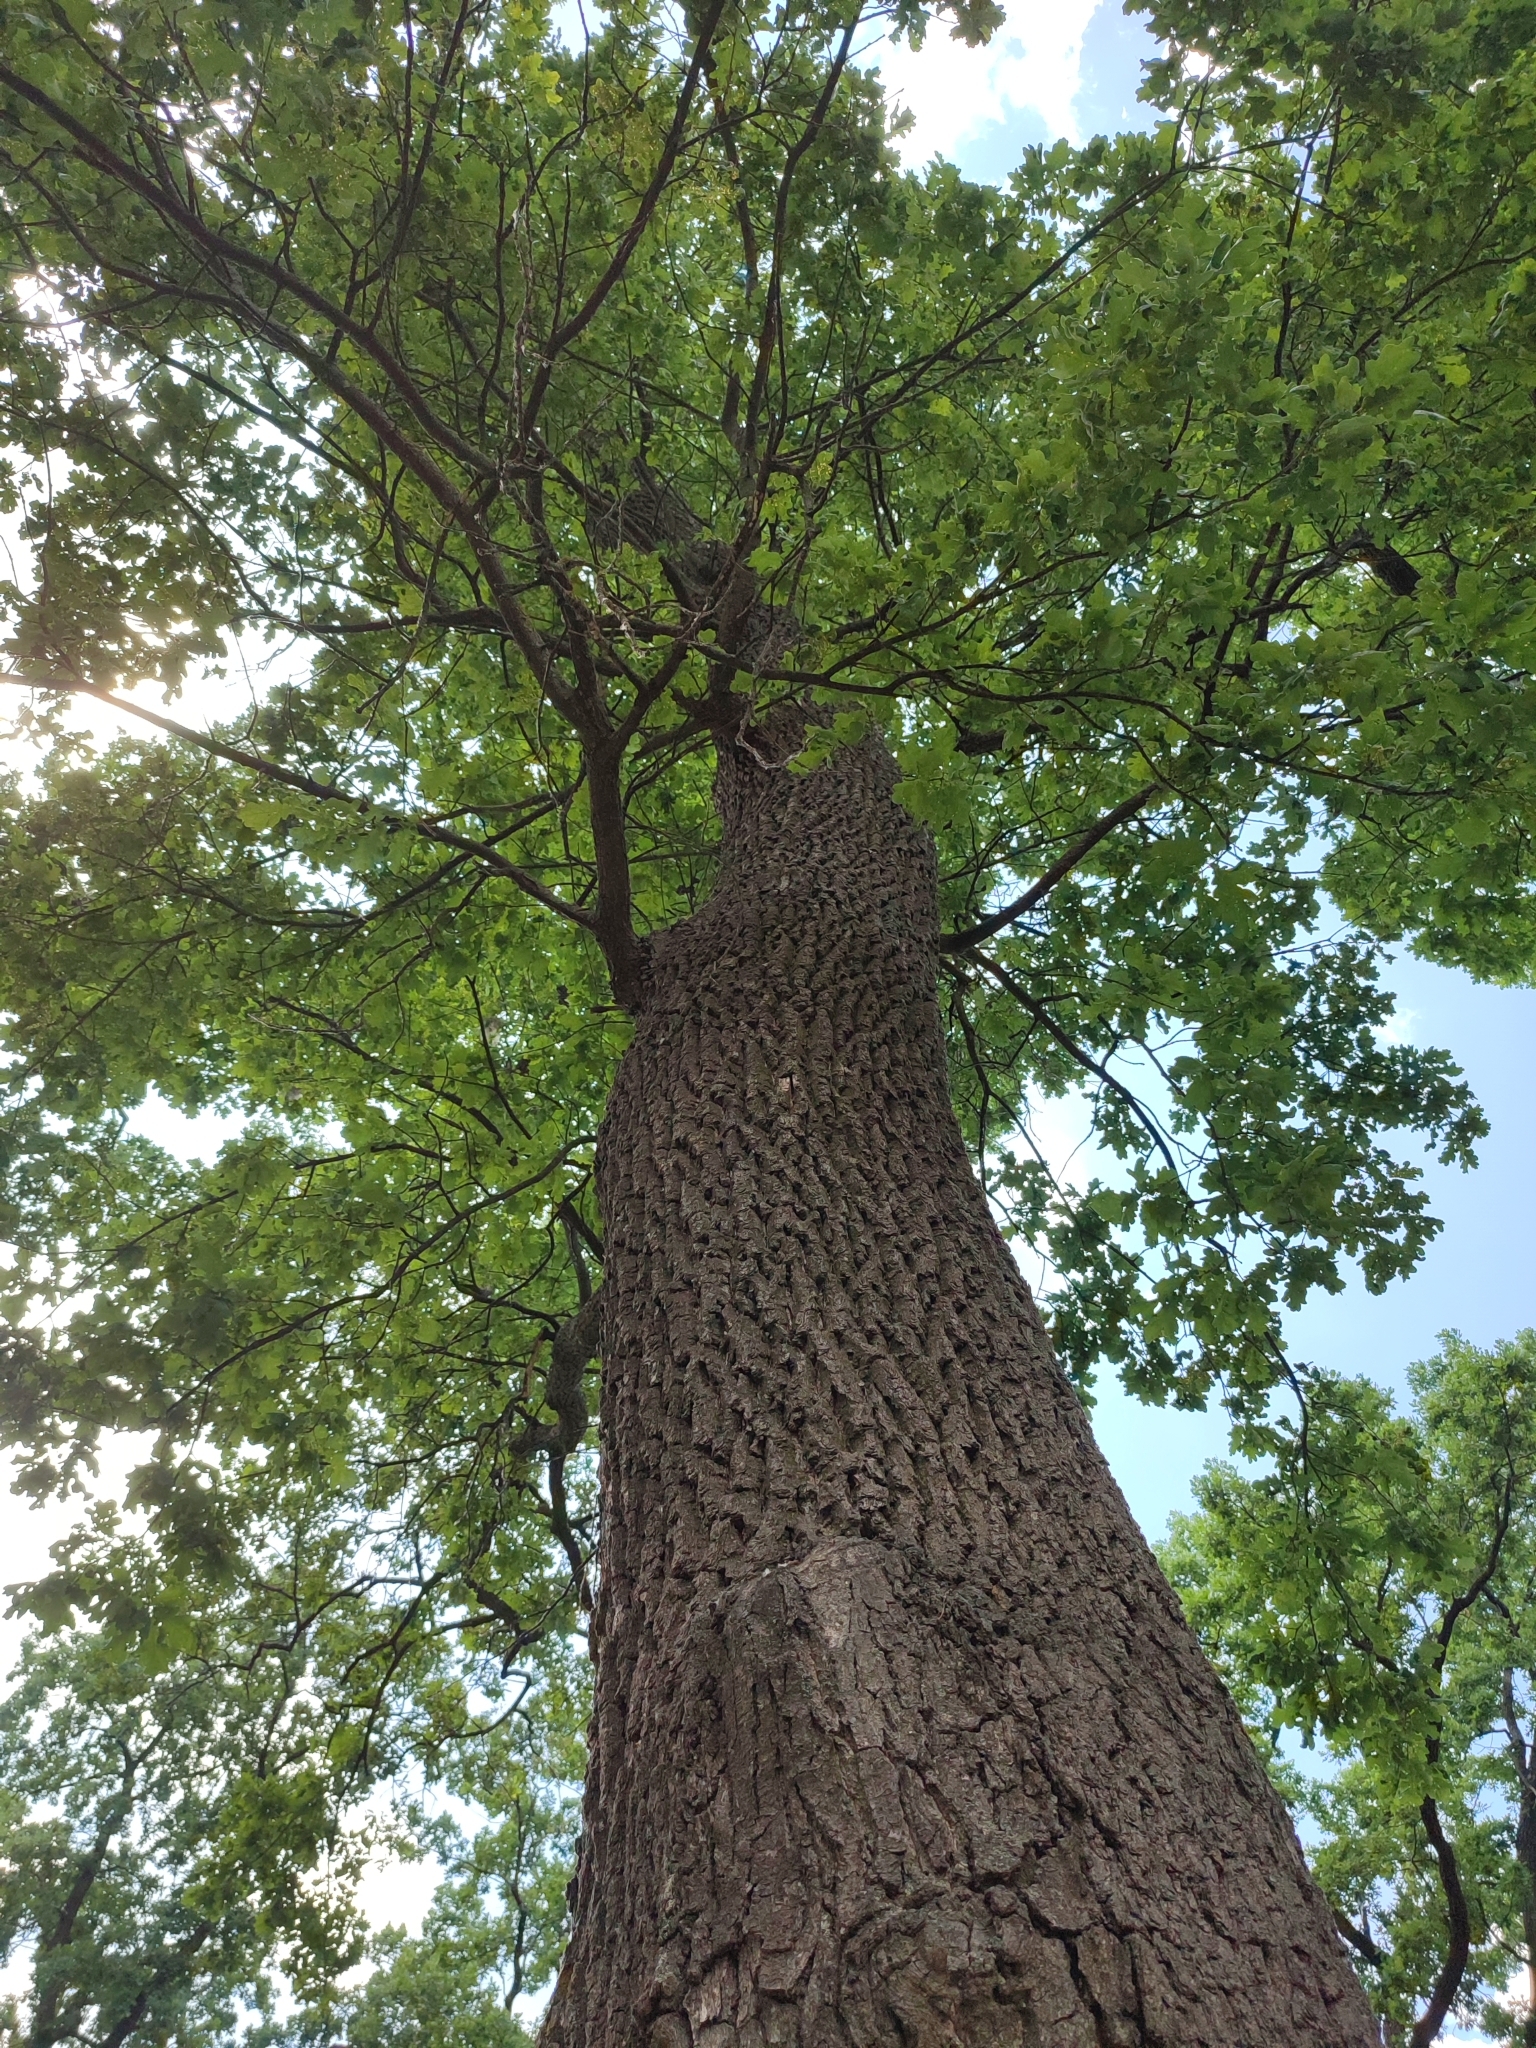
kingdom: Plantae
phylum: Tracheophyta
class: Magnoliopsida
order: Fagales
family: Fagaceae
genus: Quercus
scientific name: Quercus robur
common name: Pedunculate oak
